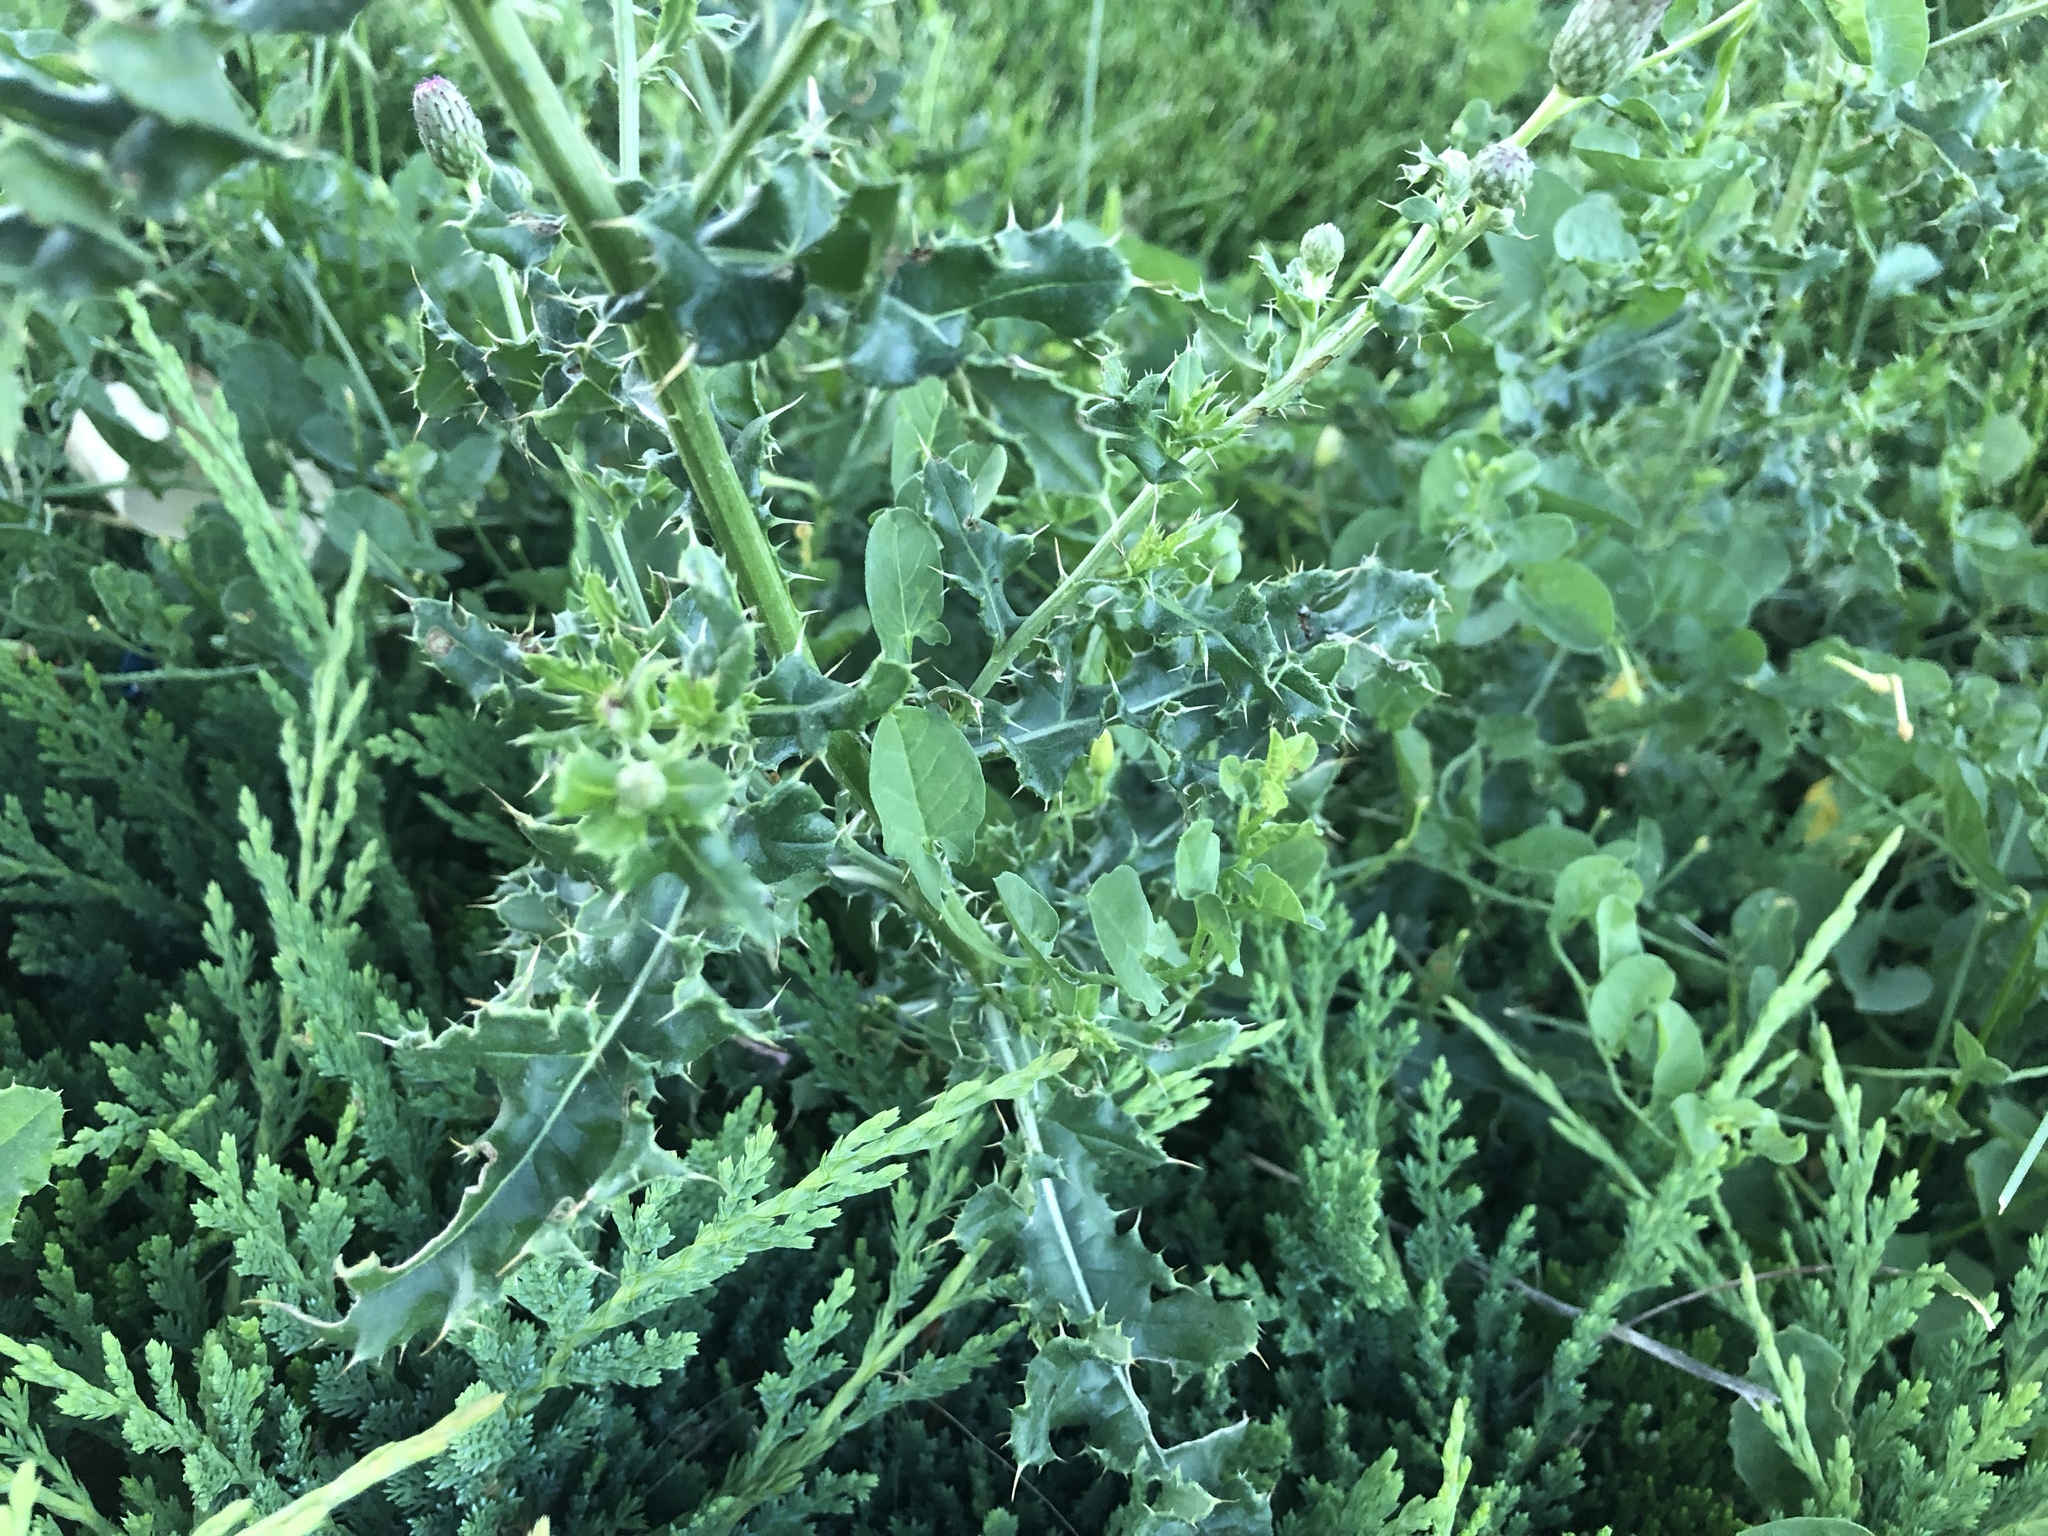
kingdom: Plantae
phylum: Tracheophyta
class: Magnoliopsida
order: Asterales
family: Asteraceae
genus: Cirsium
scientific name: Cirsium arvense
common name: Creeping thistle
